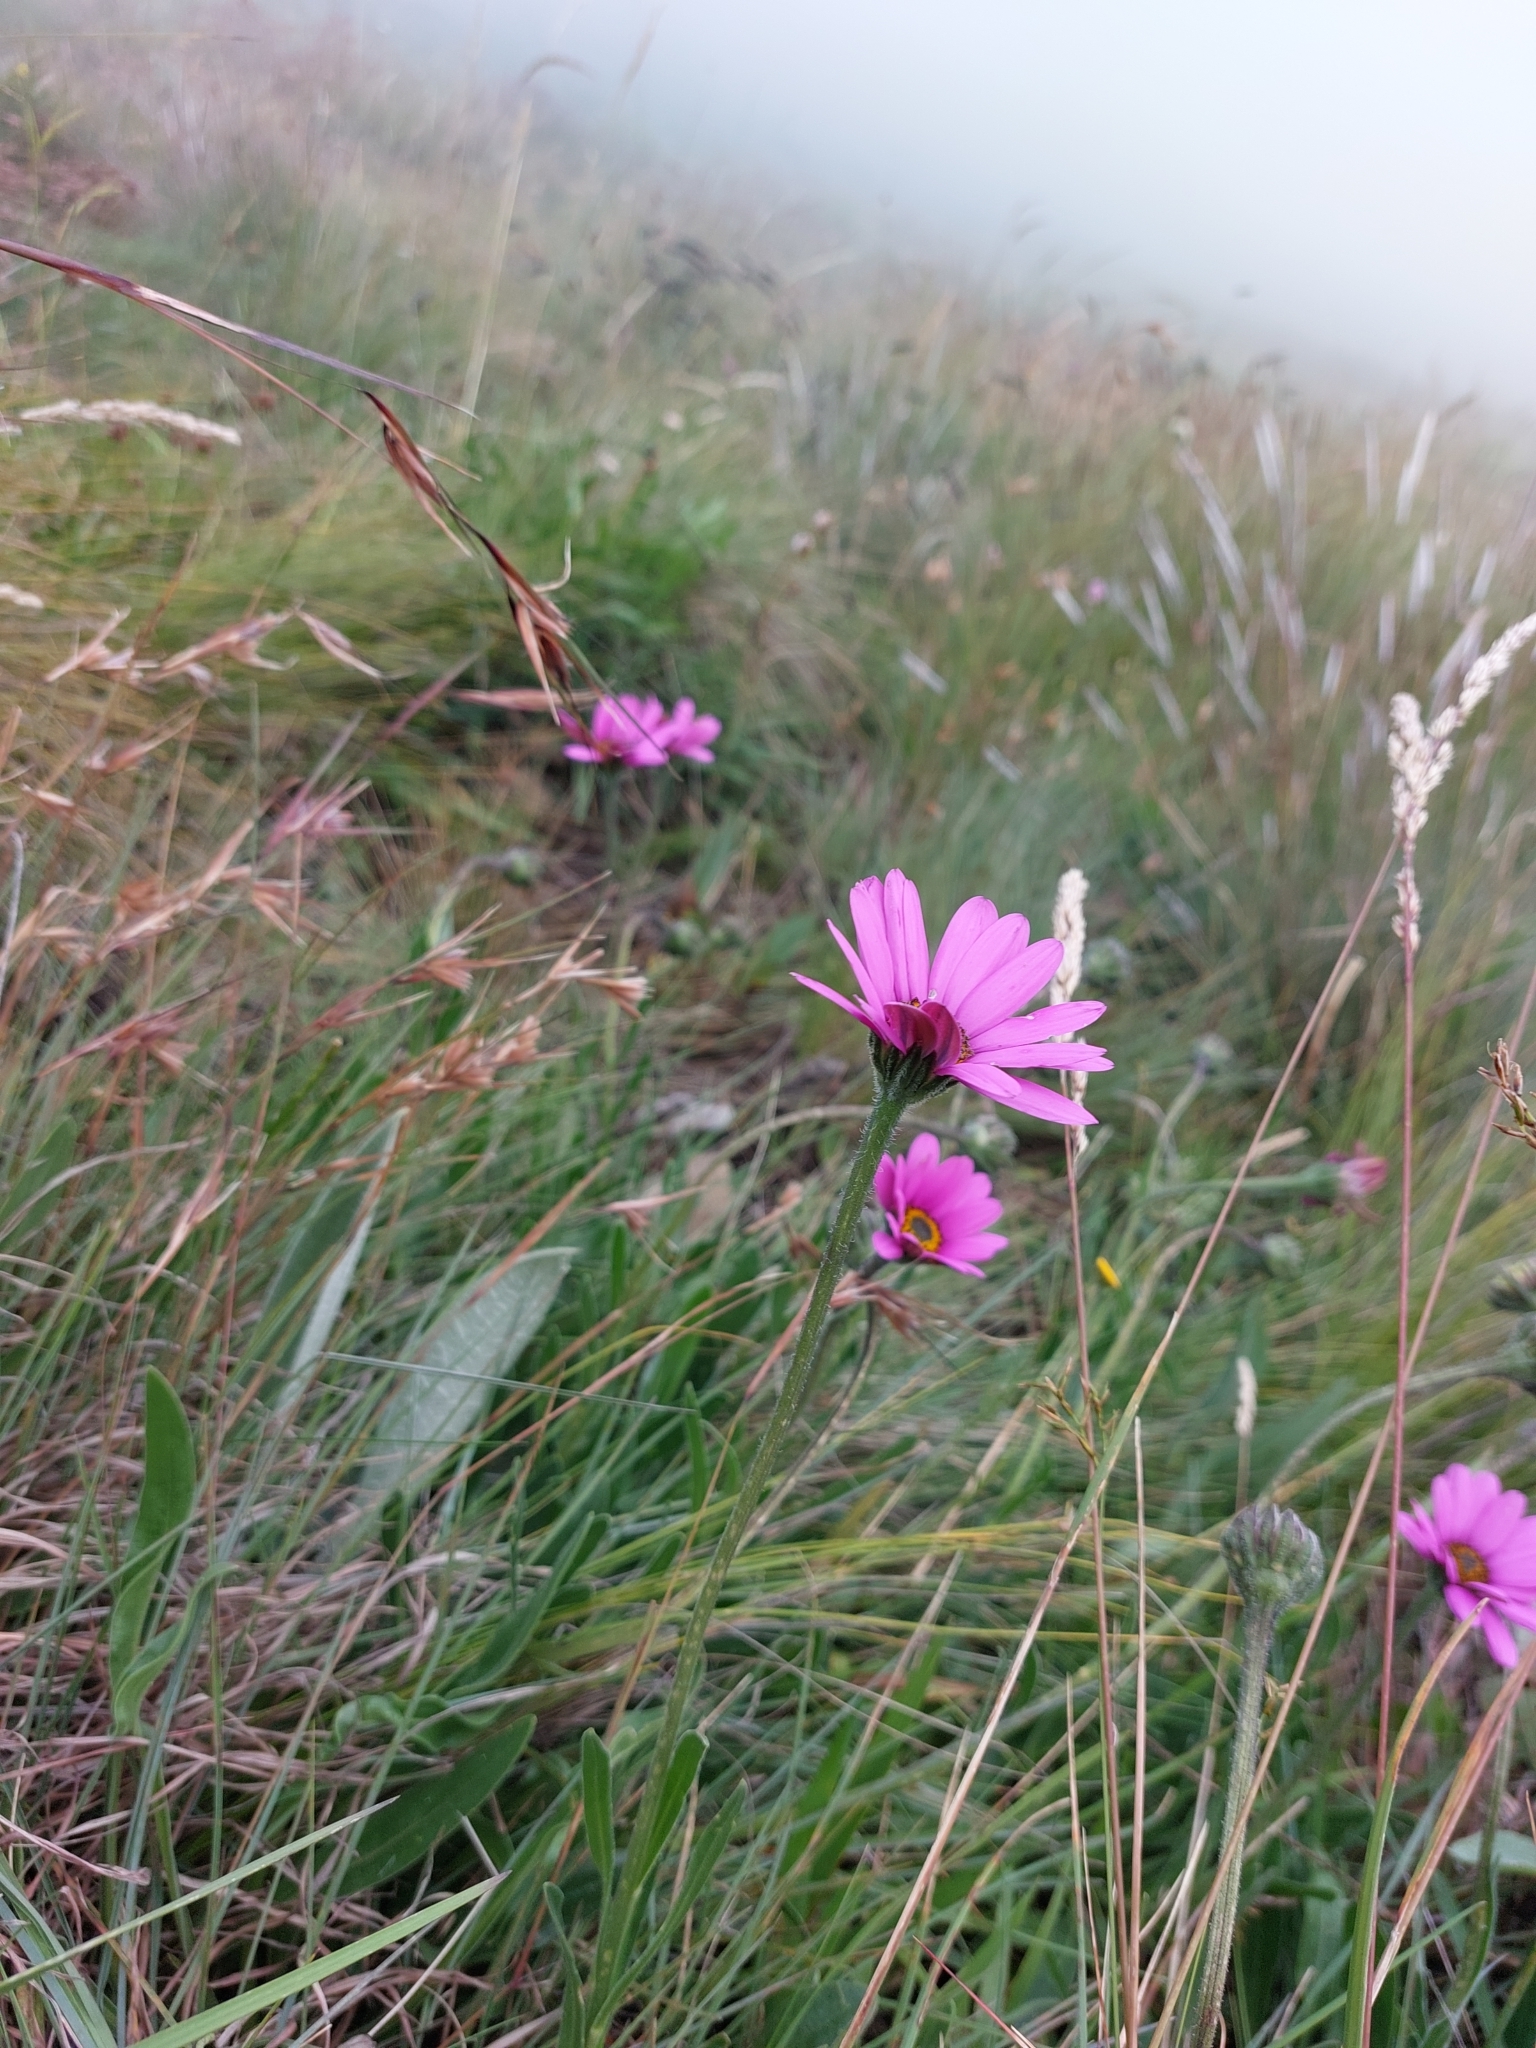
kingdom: Plantae
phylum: Tracheophyta
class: Magnoliopsida
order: Asterales
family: Asteraceae
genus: Dimorphotheca
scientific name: Dimorphotheca jucunda
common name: Osteospermum
